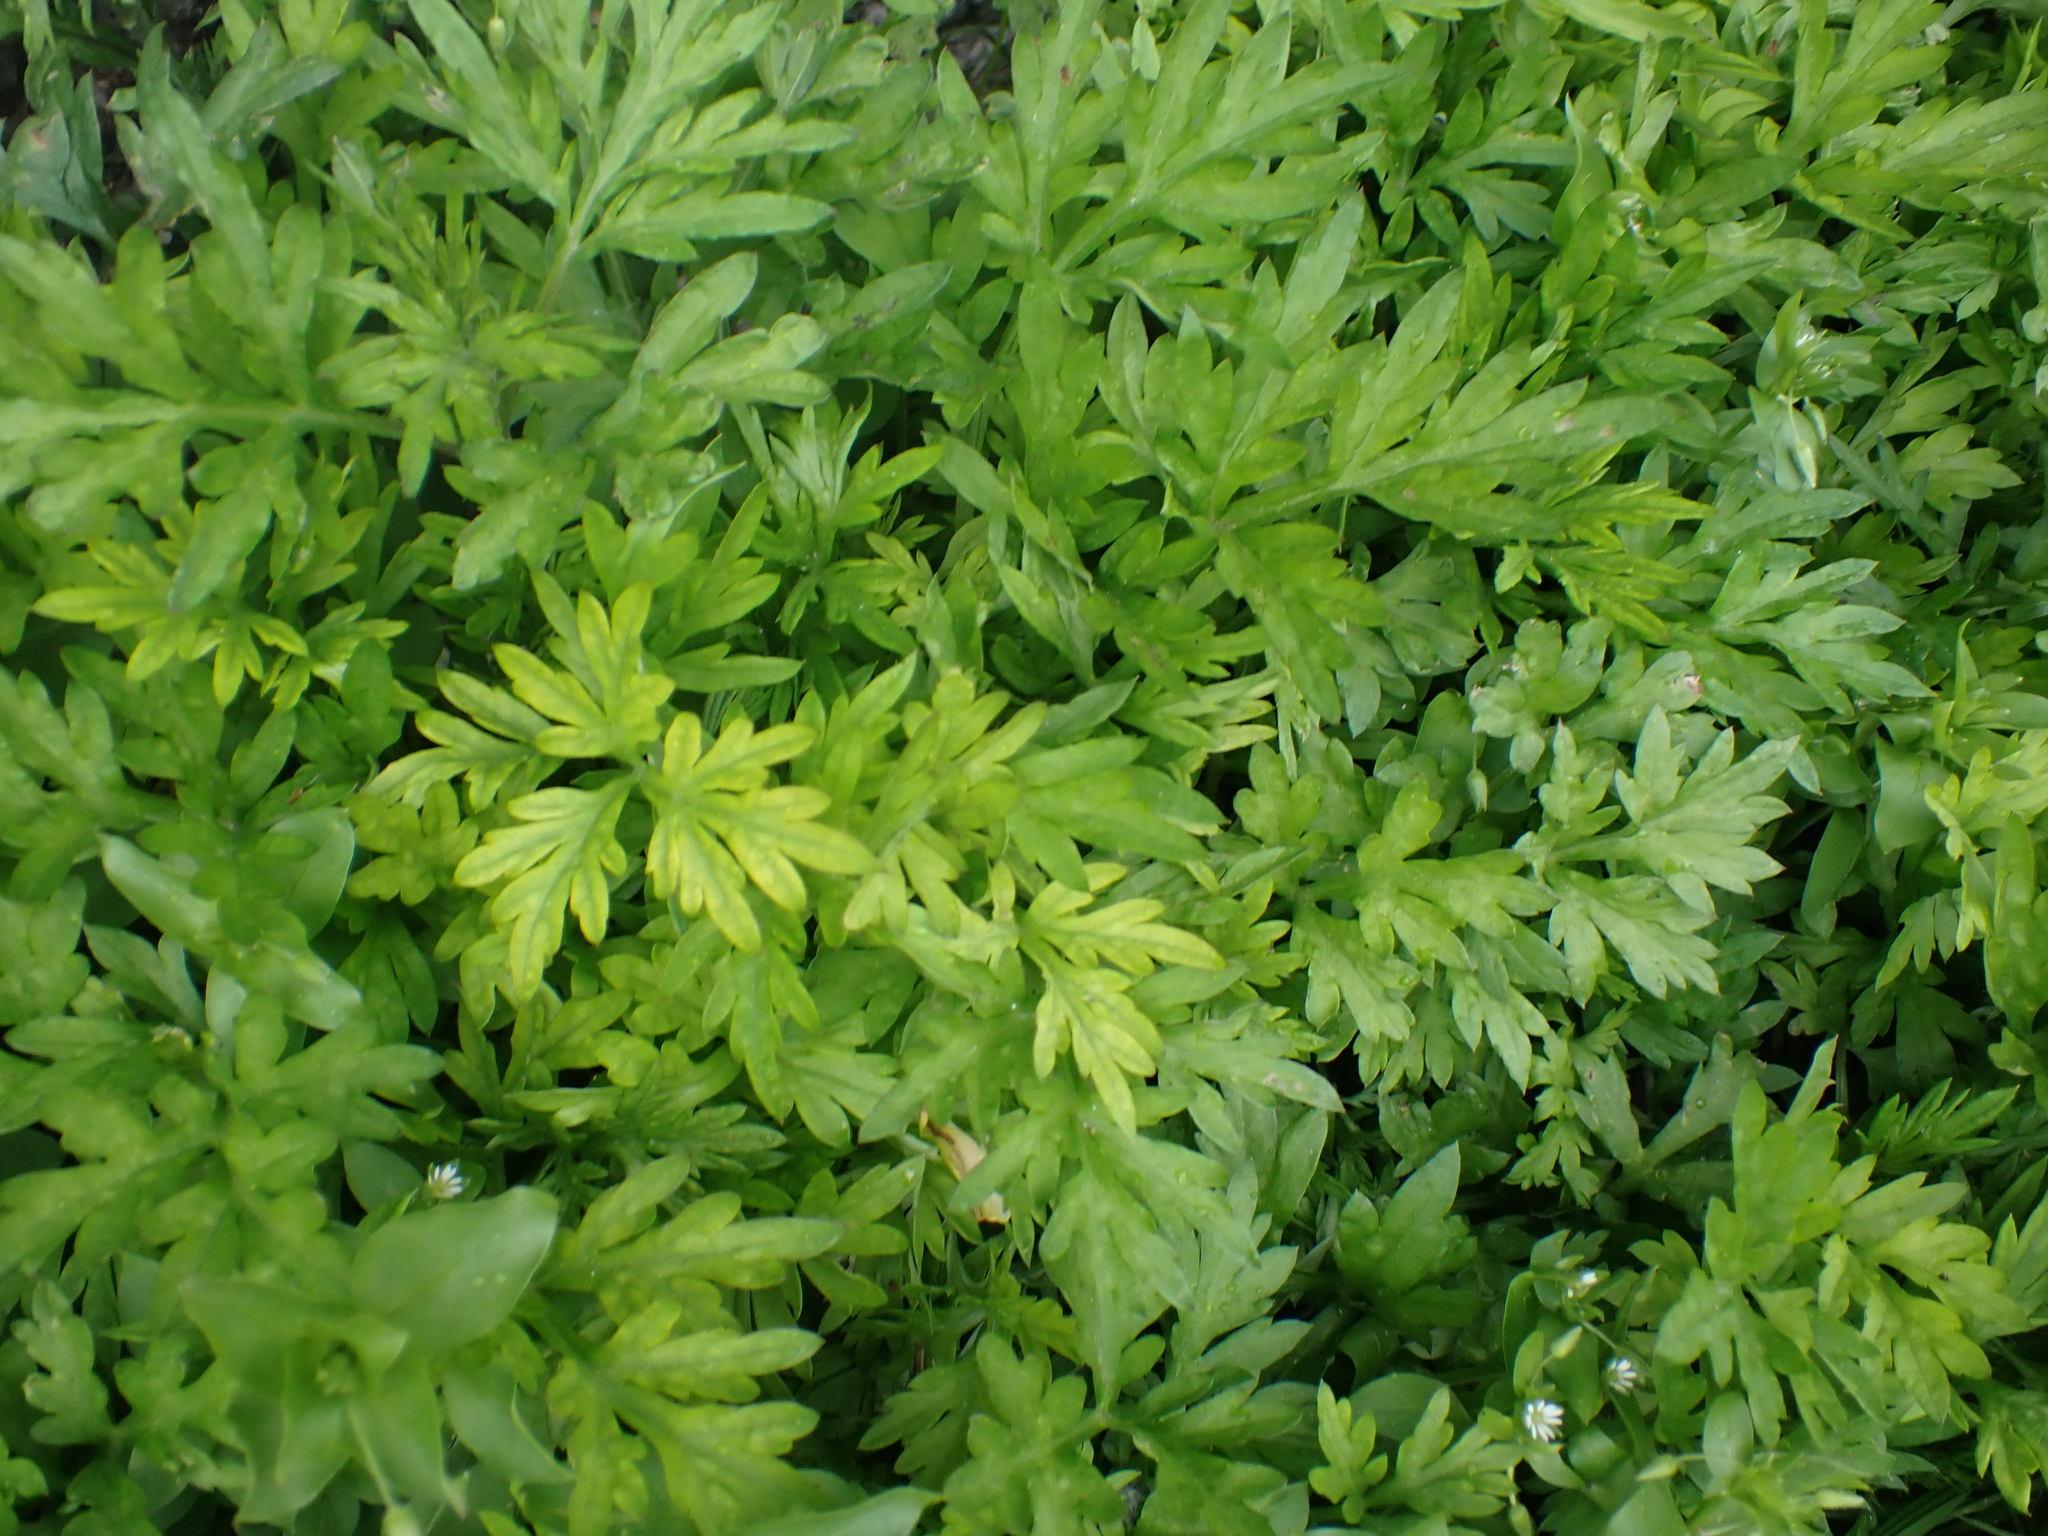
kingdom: Plantae
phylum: Tracheophyta
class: Magnoliopsida
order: Asterales
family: Asteraceae
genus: Artemisia
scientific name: Artemisia verlotiorum
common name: Chinese mugwort
